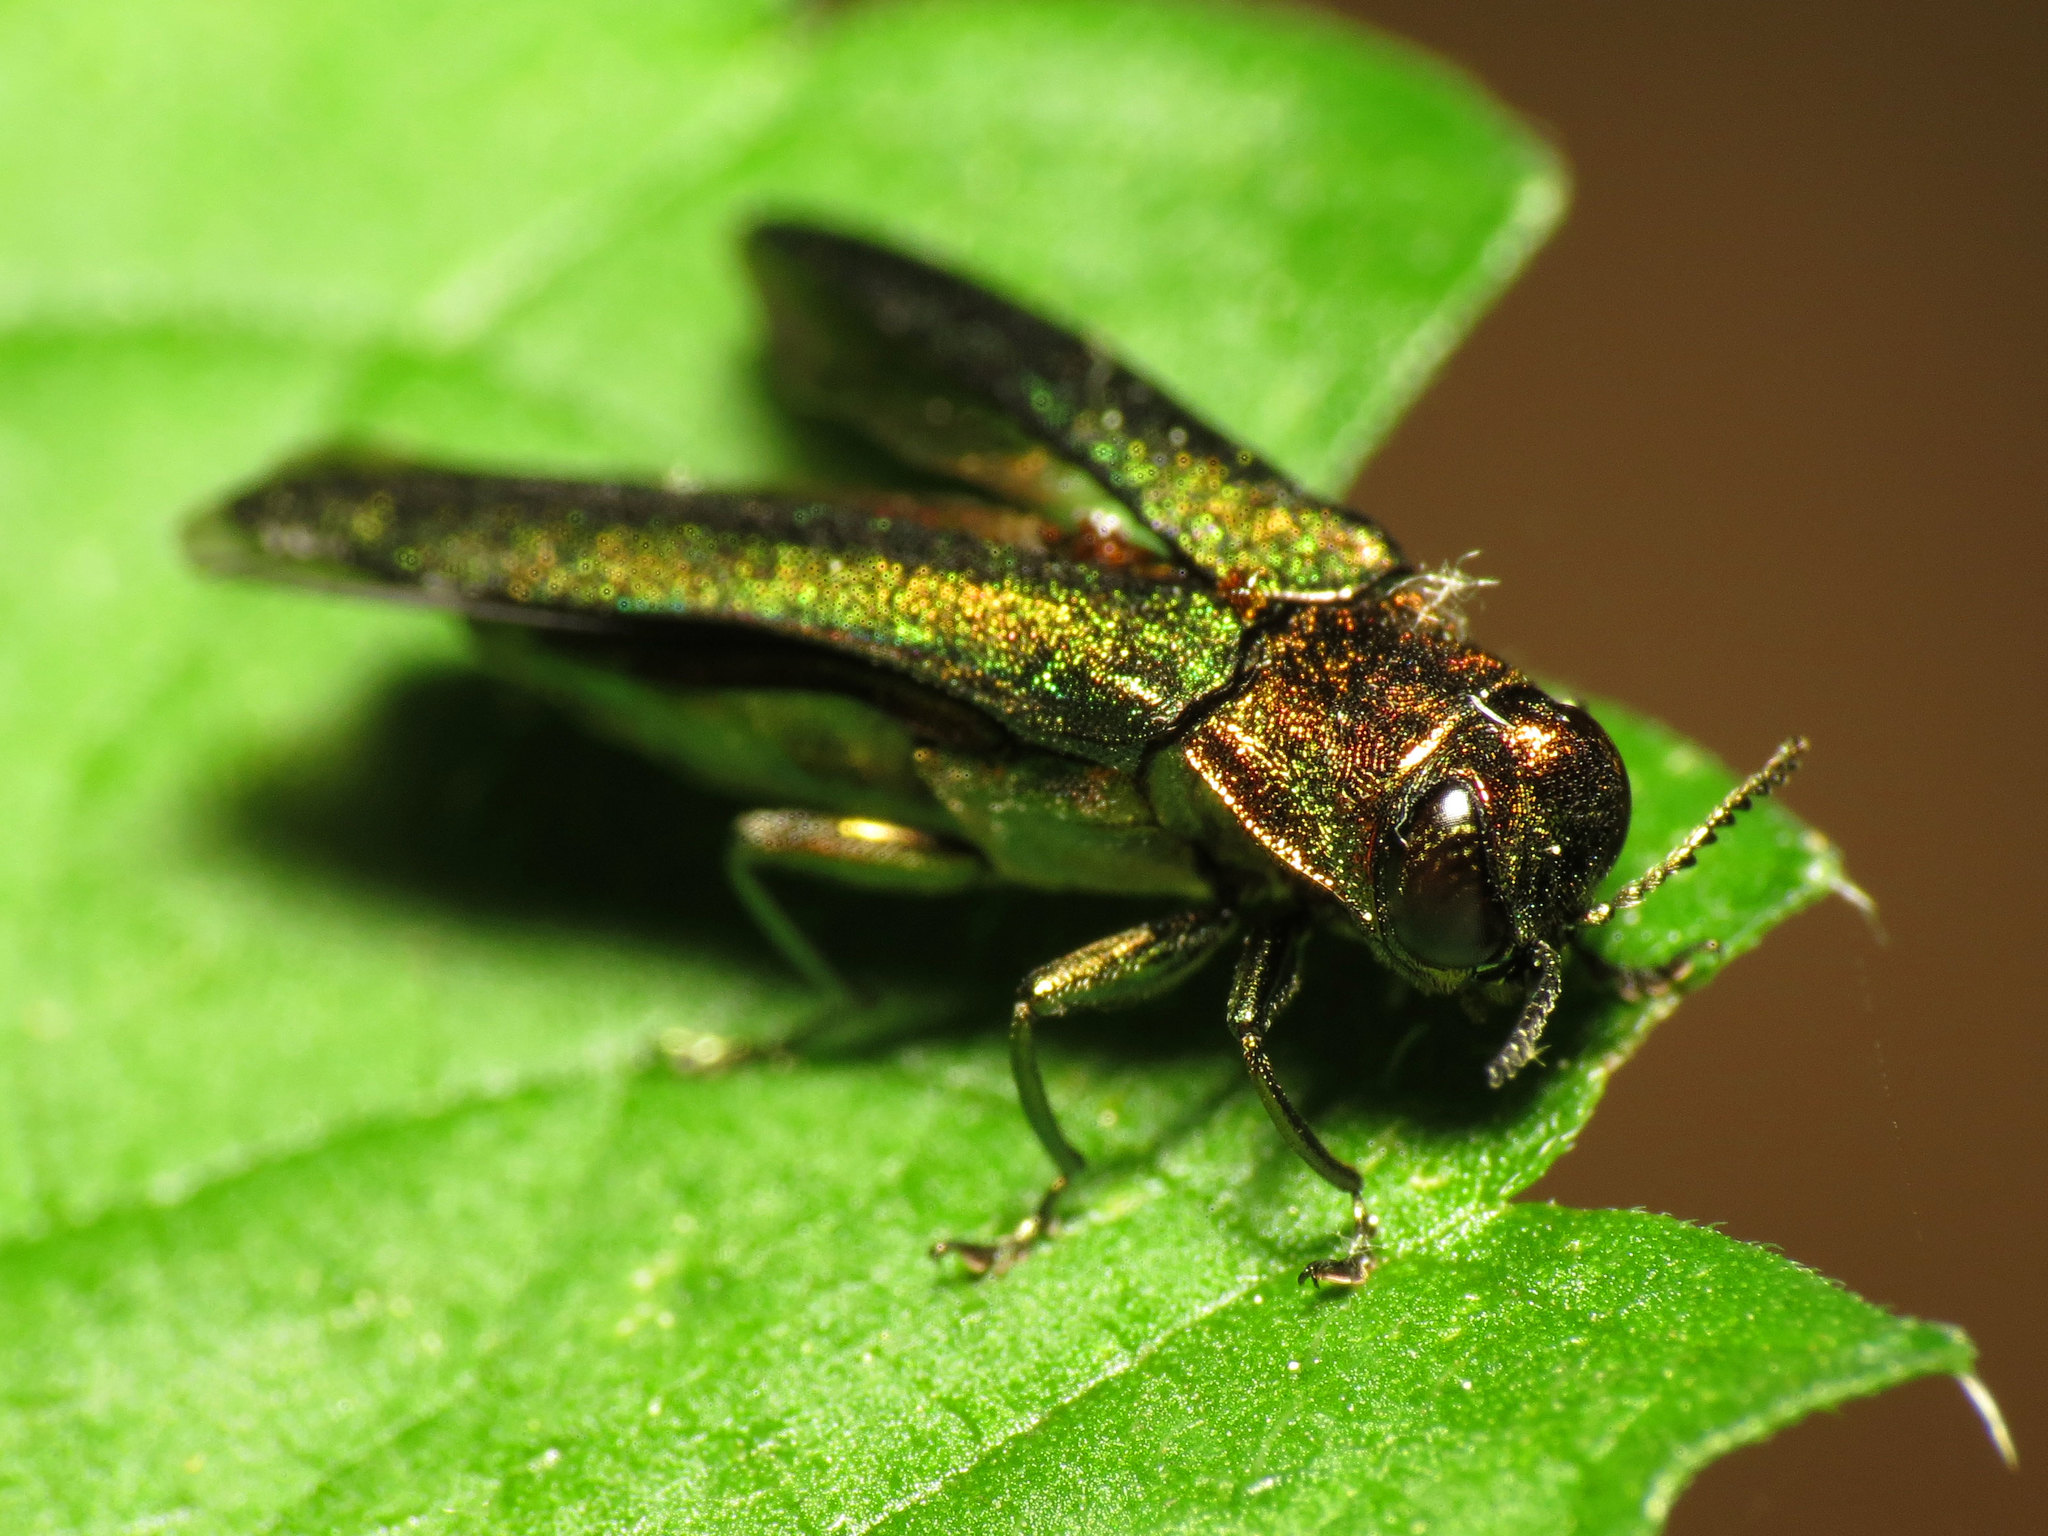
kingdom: Animalia
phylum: Arthropoda
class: Insecta
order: Coleoptera
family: Buprestidae
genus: Agrilus
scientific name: Agrilus planipennis
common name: Emerald ash borer
